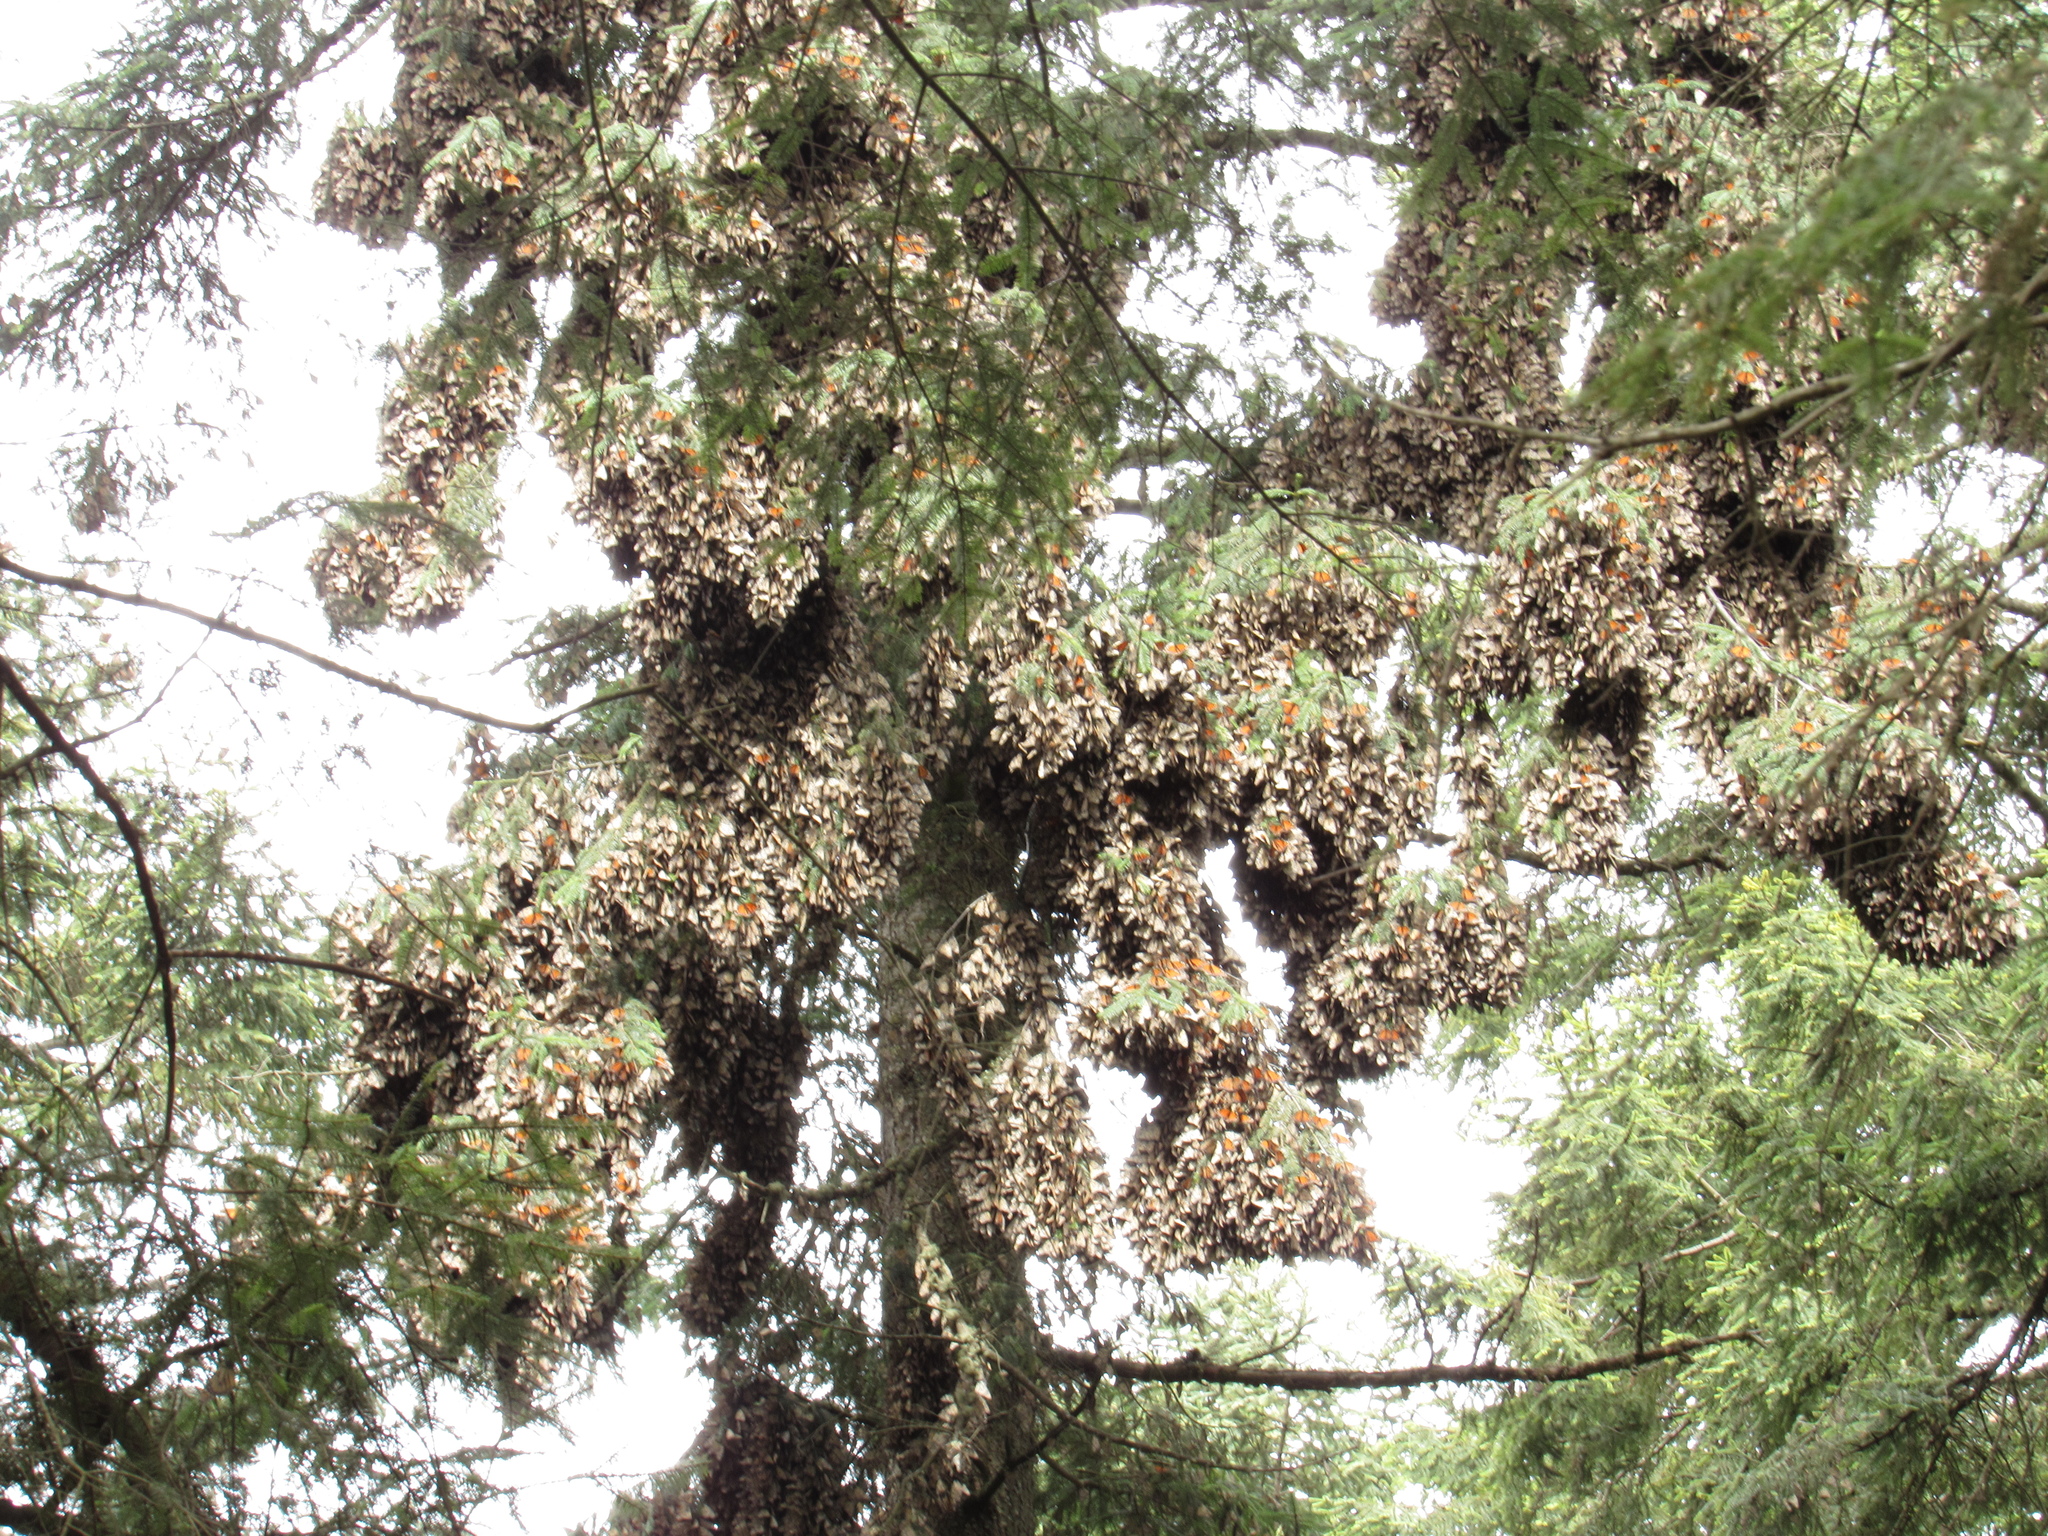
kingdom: Animalia
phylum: Arthropoda
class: Insecta
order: Lepidoptera
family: Nymphalidae
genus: Danaus
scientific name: Danaus plexippus
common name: Monarch
